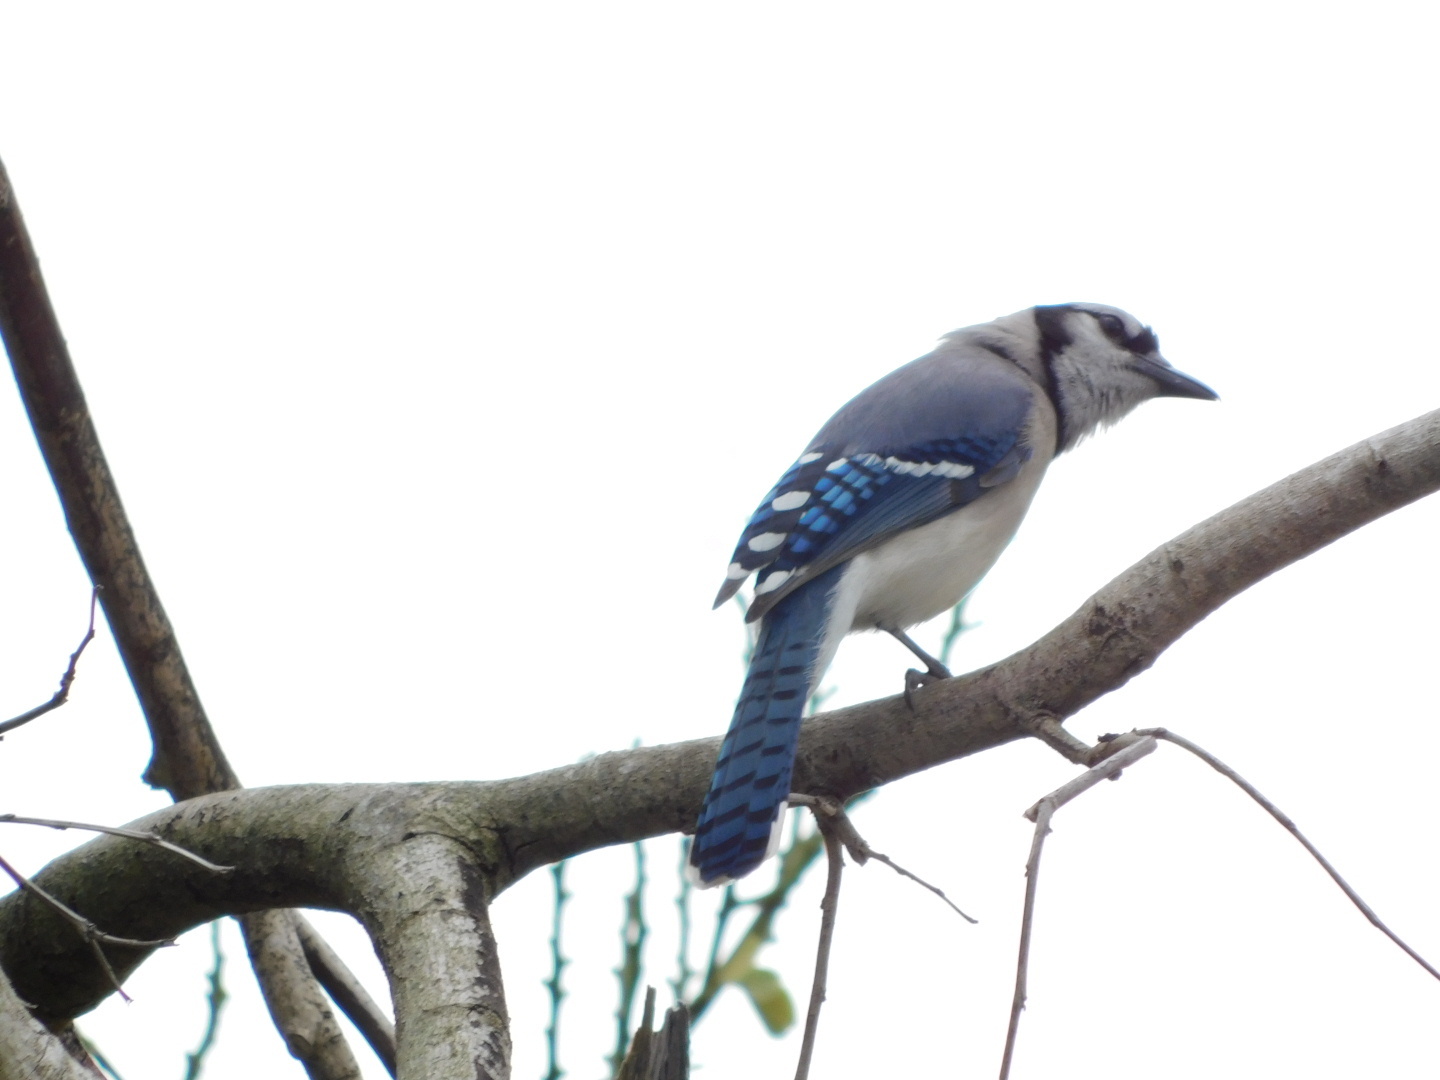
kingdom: Animalia
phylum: Chordata
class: Aves
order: Passeriformes
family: Corvidae
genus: Cyanocitta
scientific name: Cyanocitta cristata
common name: Blue jay
